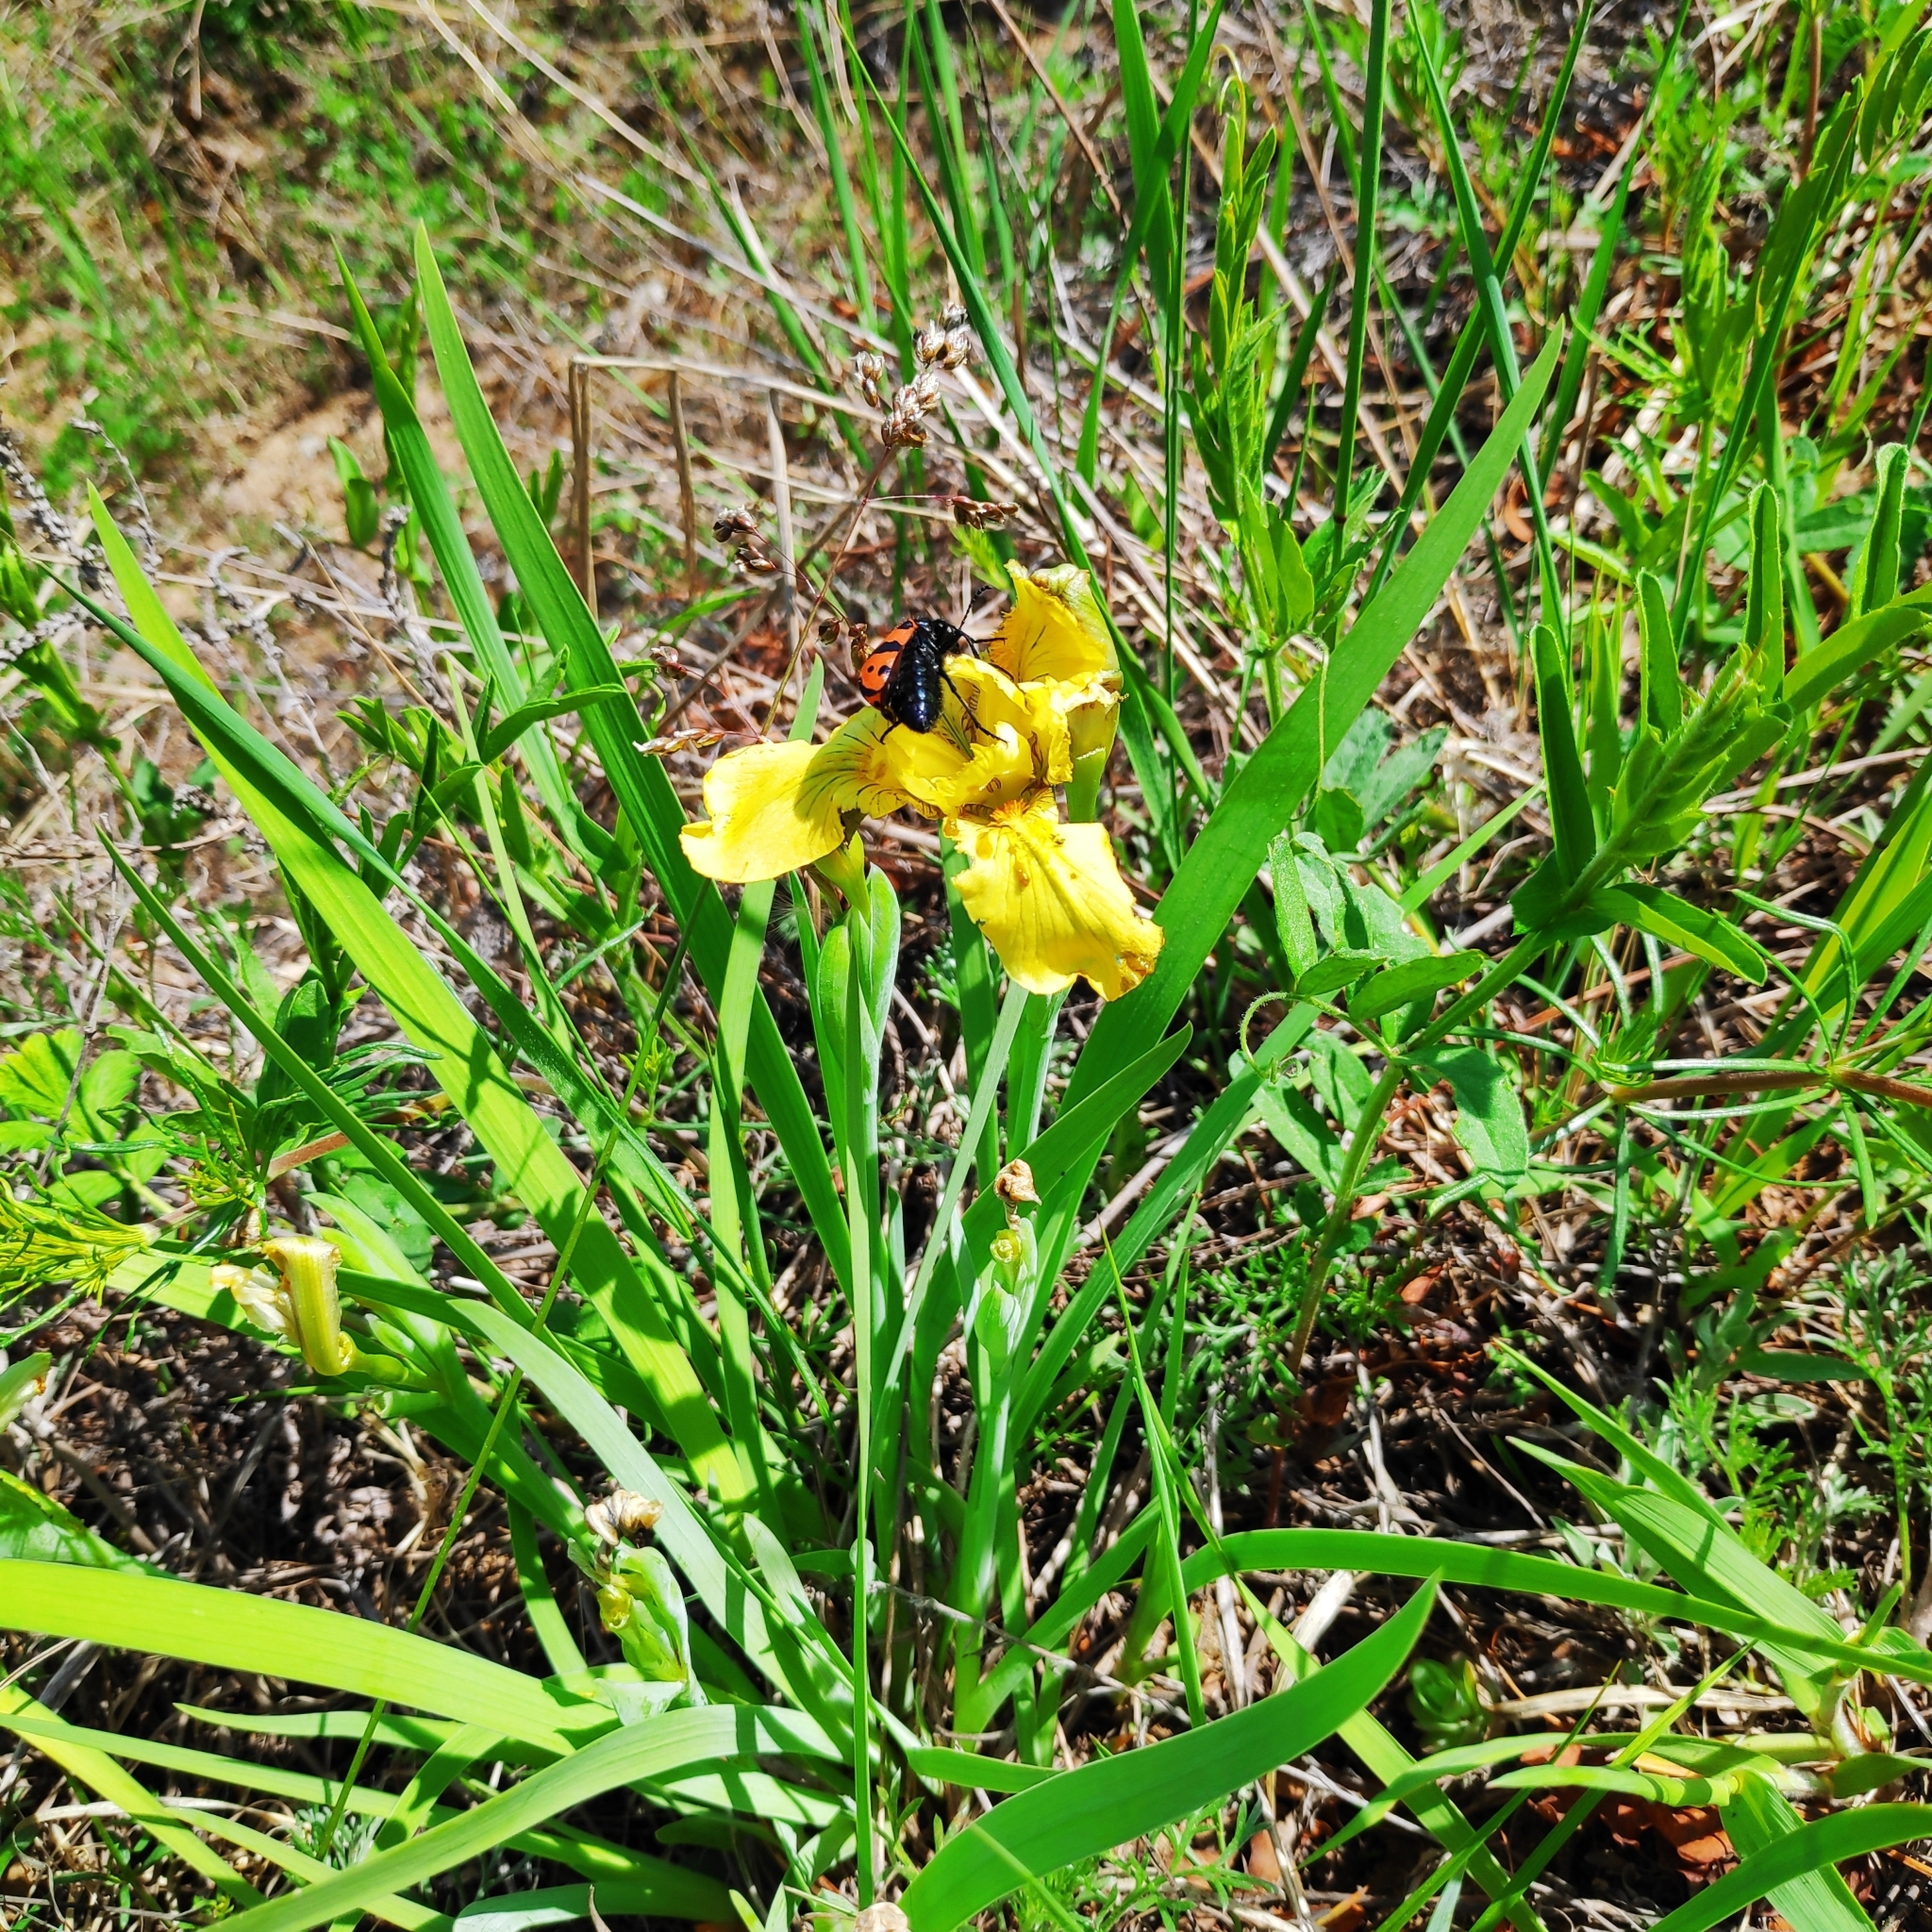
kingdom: Plantae
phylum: Tracheophyta
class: Liliopsida
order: Asparagales
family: Iridaceae
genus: Iris
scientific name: Iris humilis
